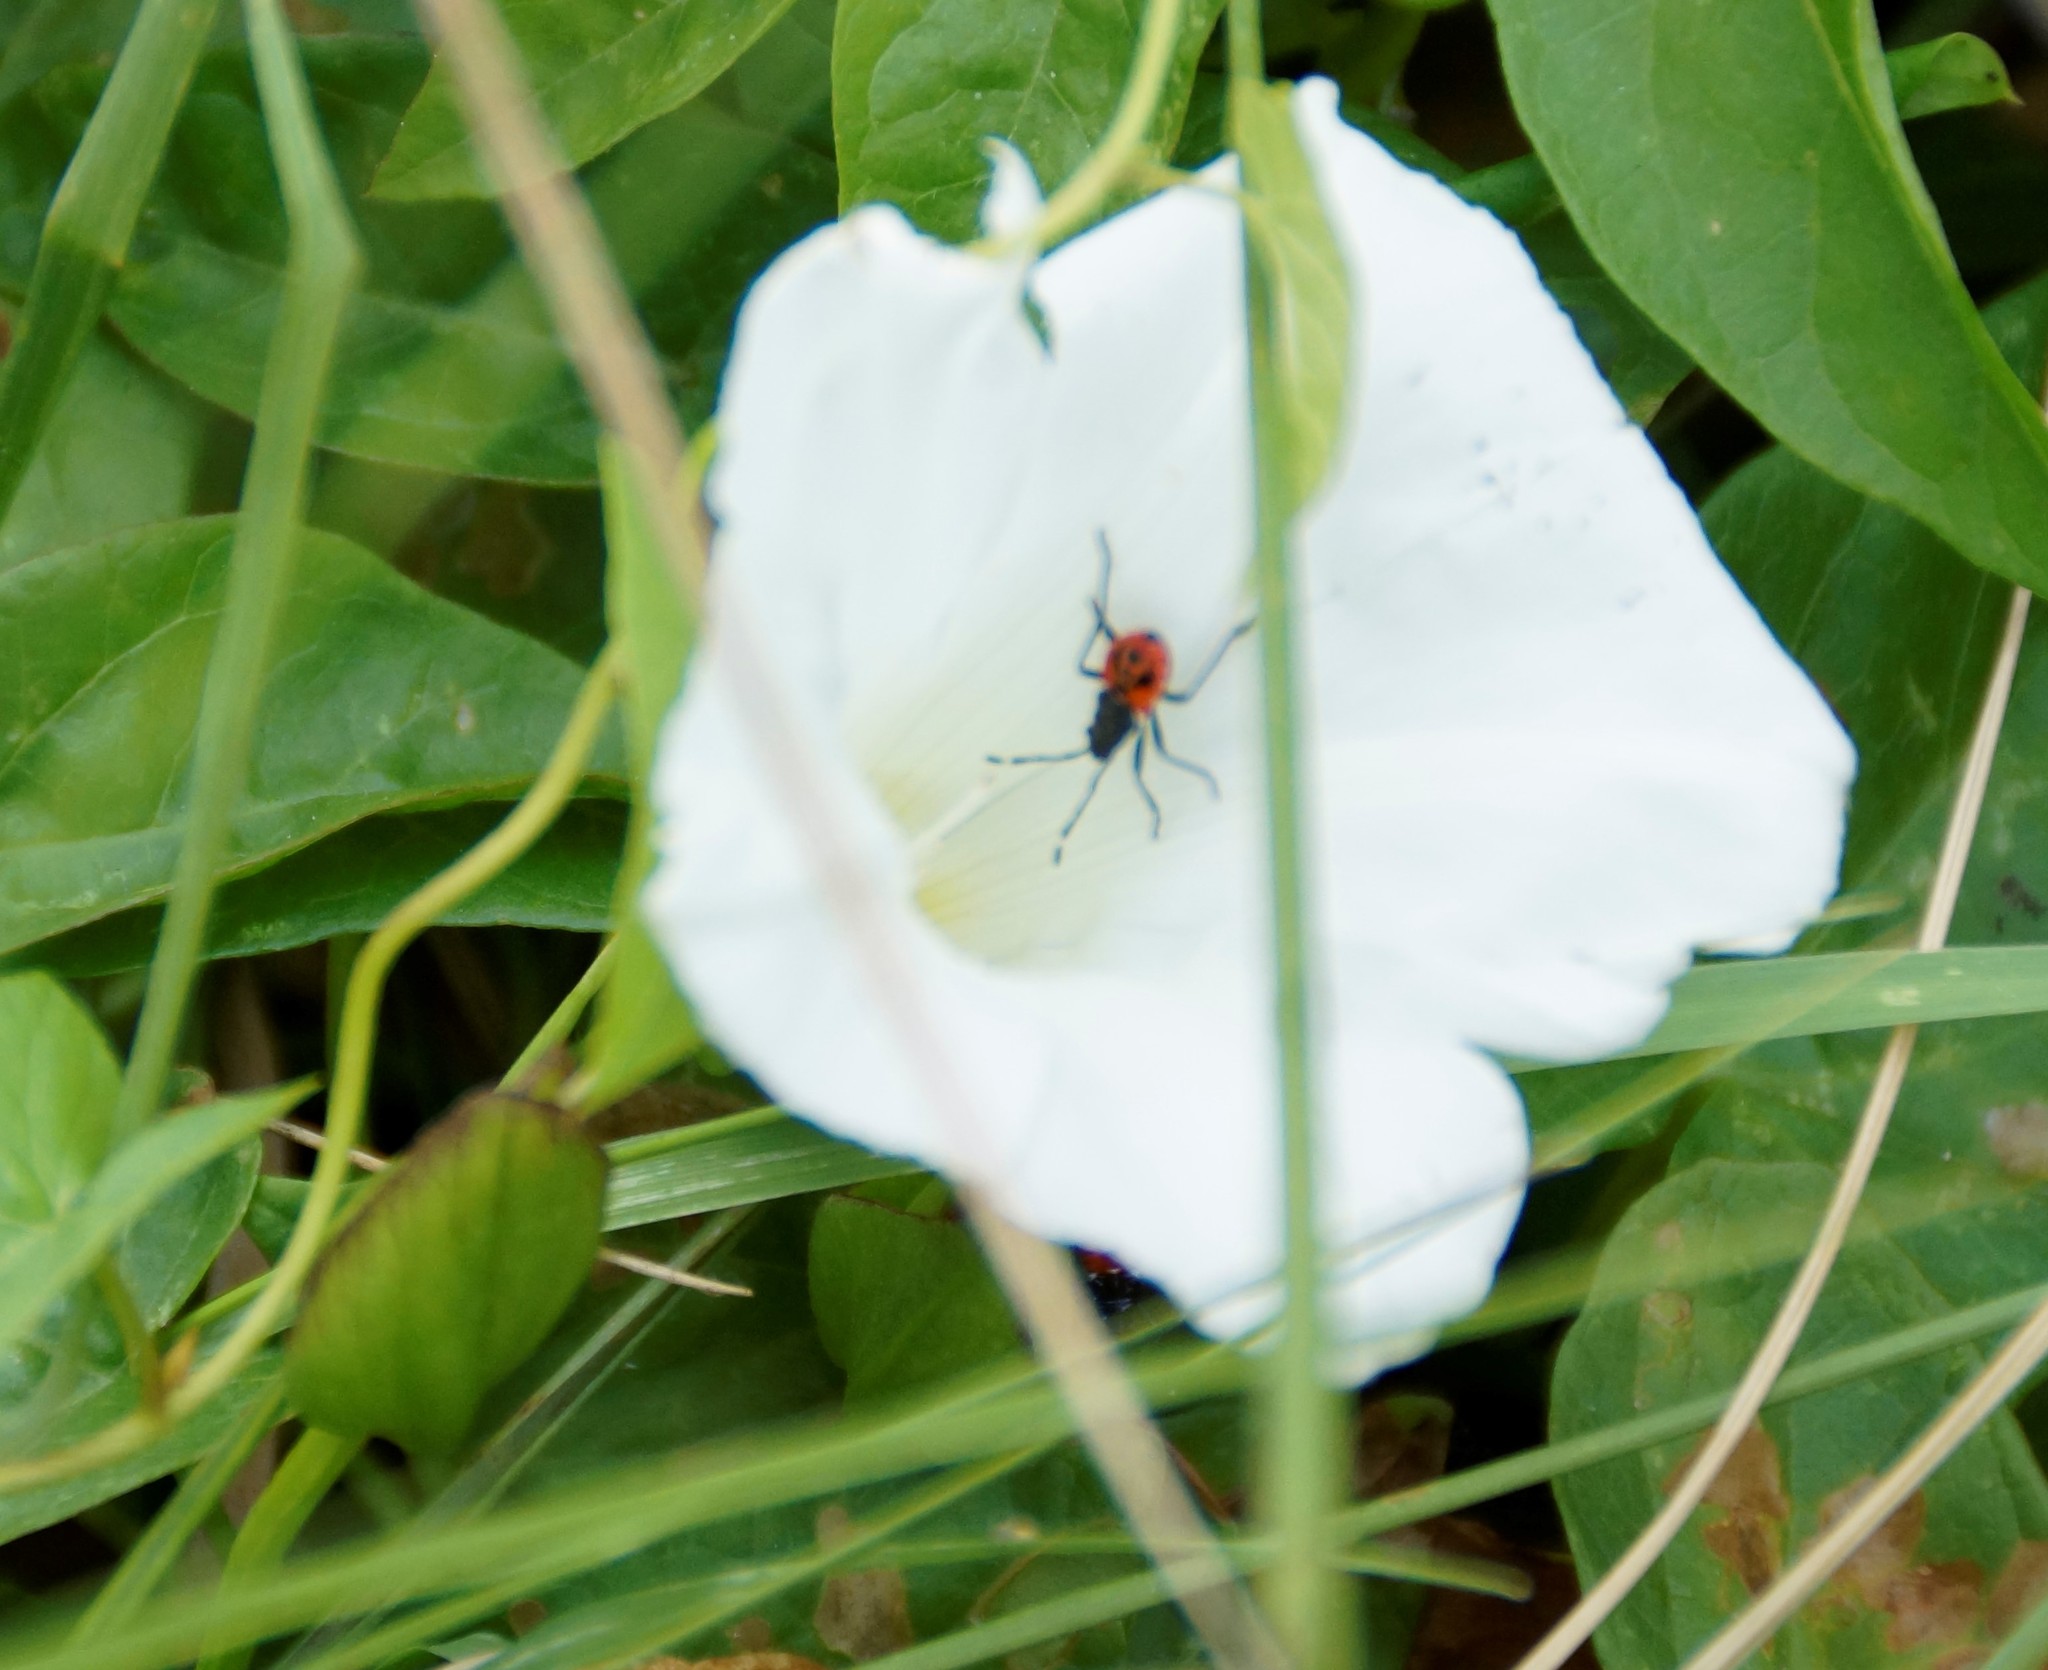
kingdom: Animalia
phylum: Arthropoda
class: Insecta
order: Hemiptera
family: Pyrrhocoridae
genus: Dindymus
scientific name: Dindymus
